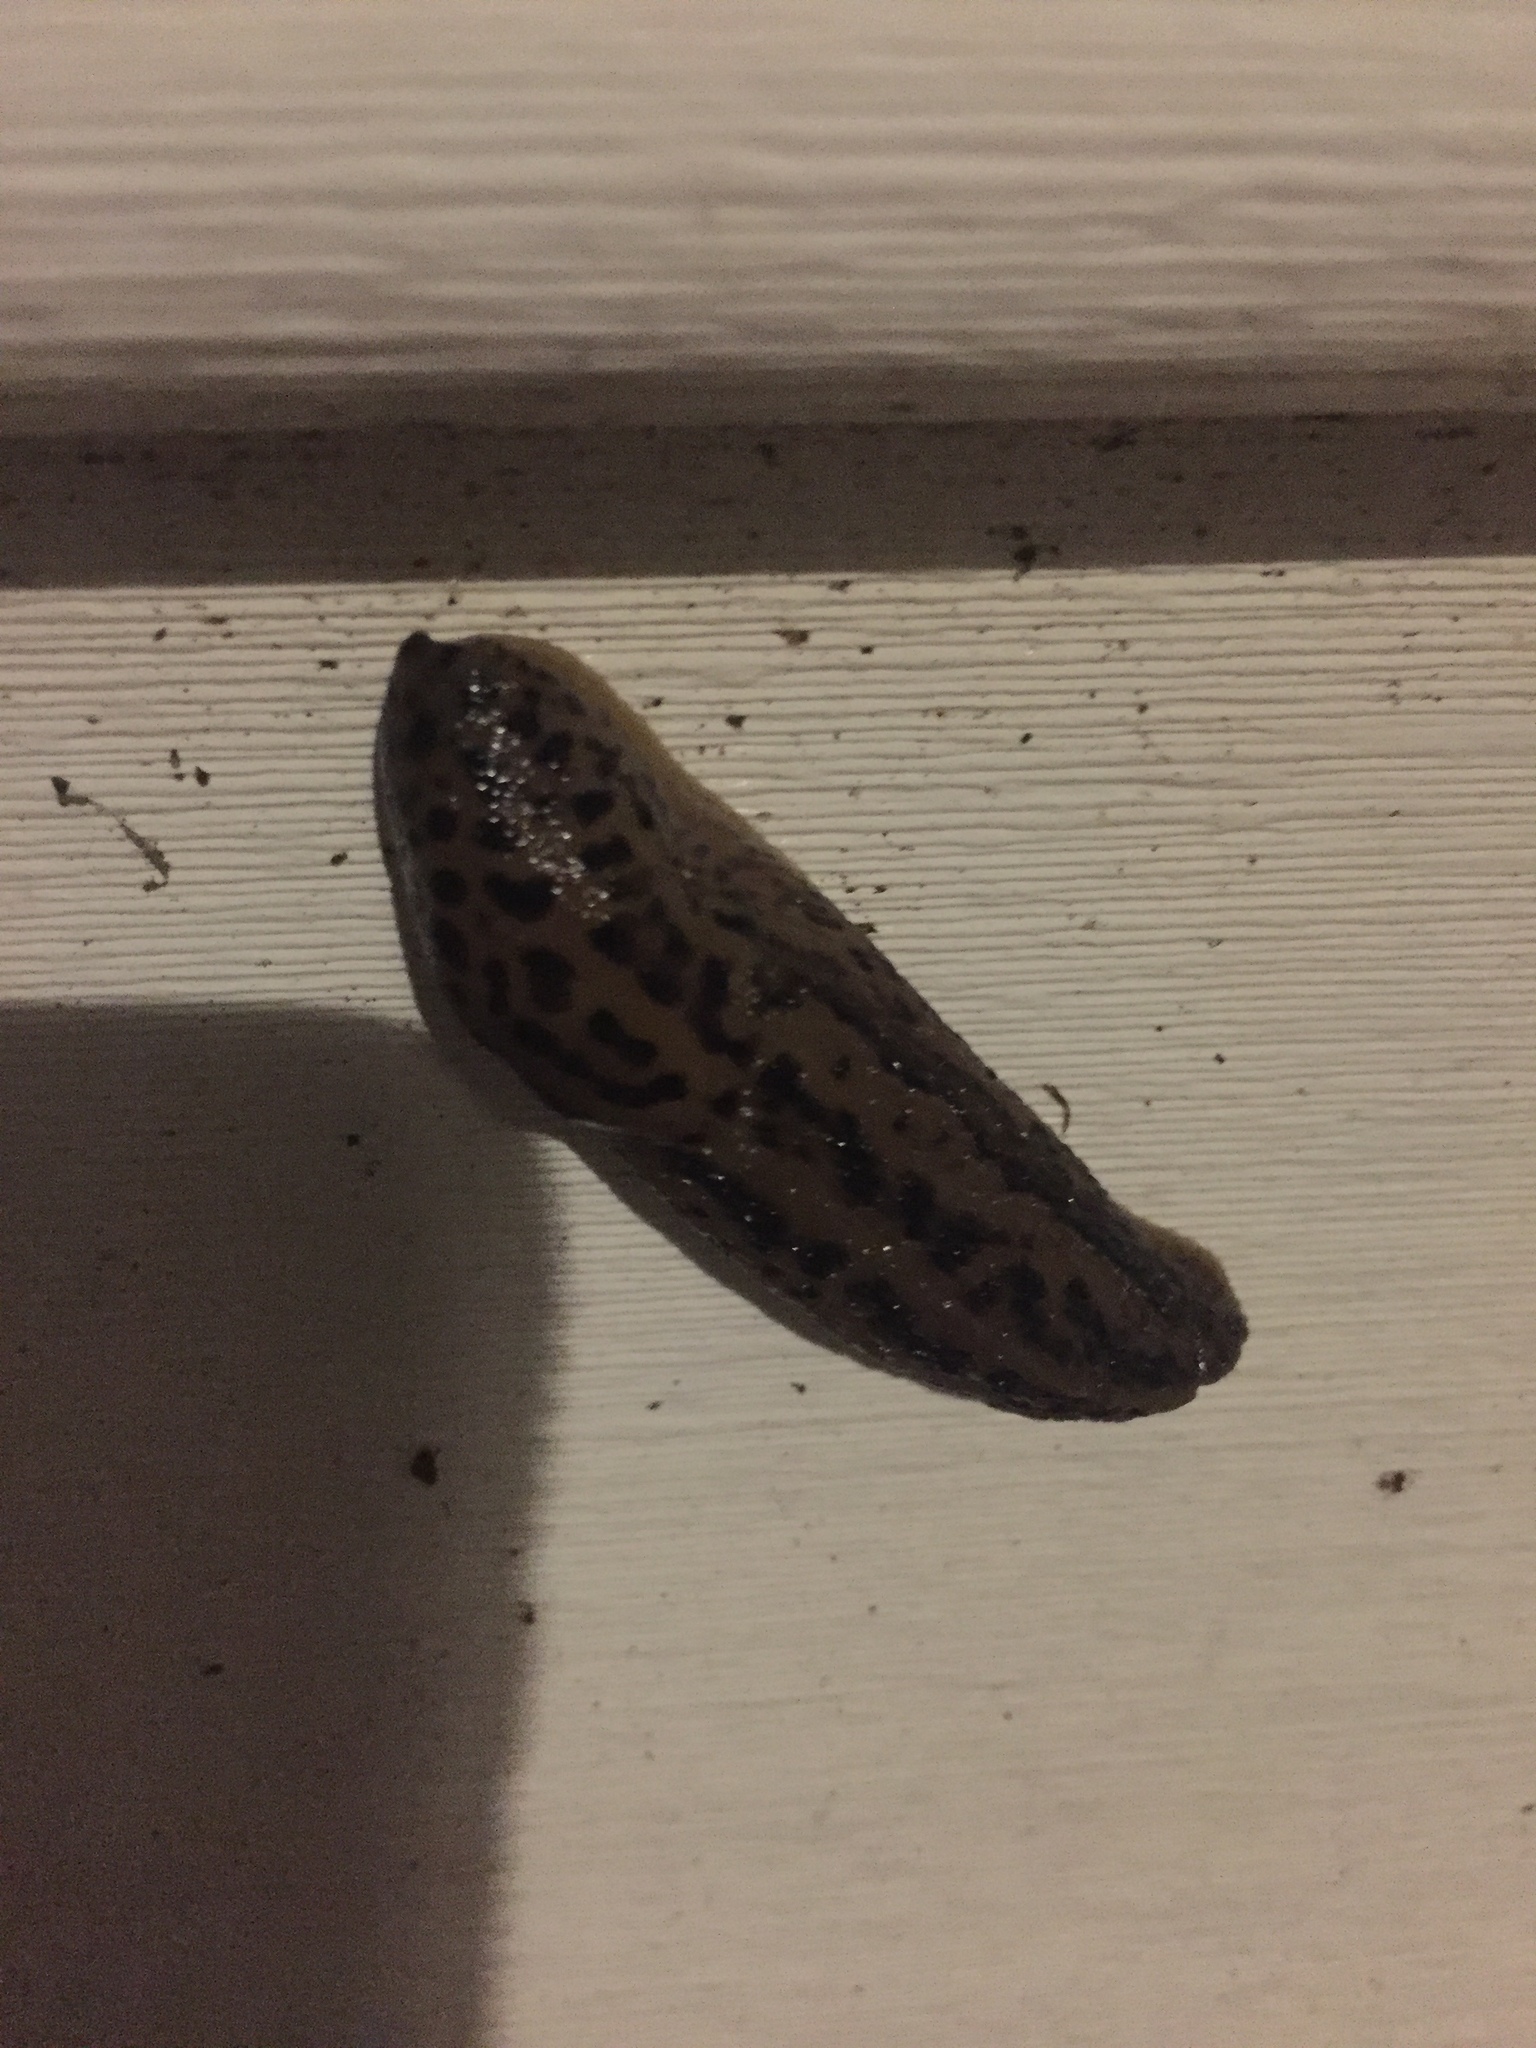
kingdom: Animalia
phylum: Mollusca
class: Gastropoda
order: Stylommatophora
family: Limacidae
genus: Limax
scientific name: Limax maximus
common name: Great grey slug
